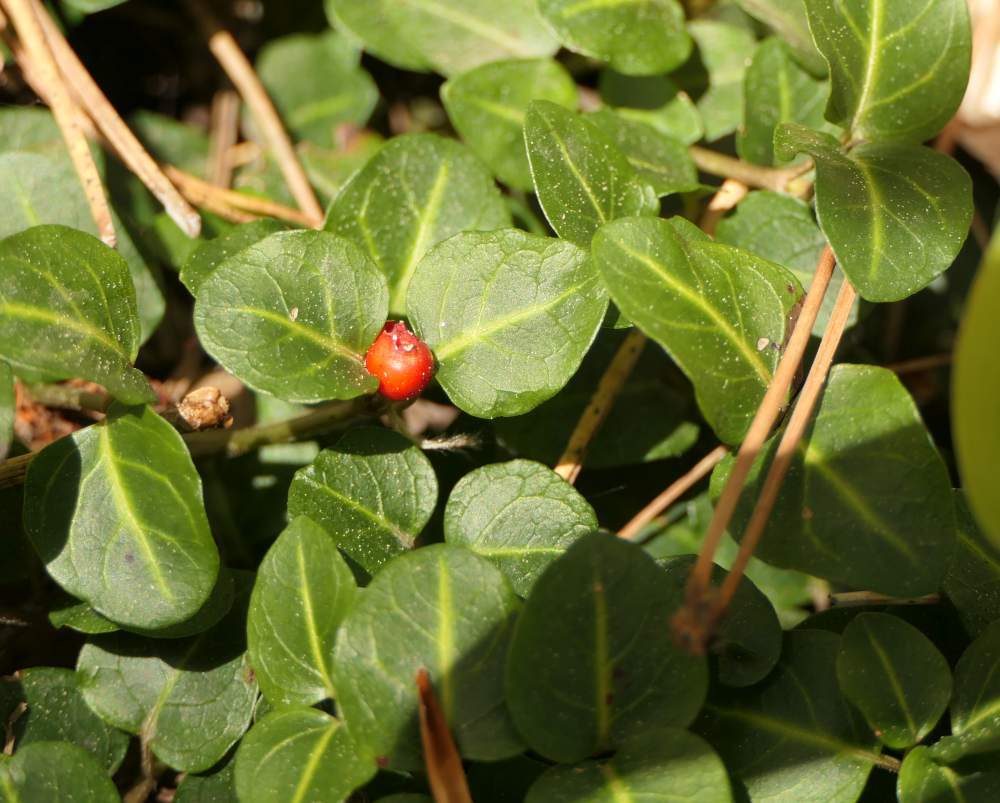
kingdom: Plantae
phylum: Tracheophyta
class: Magnoliopsida
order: Gentianales
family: Rubiaceae
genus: Mitchella
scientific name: Mitchella repens
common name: Partridge-berry
